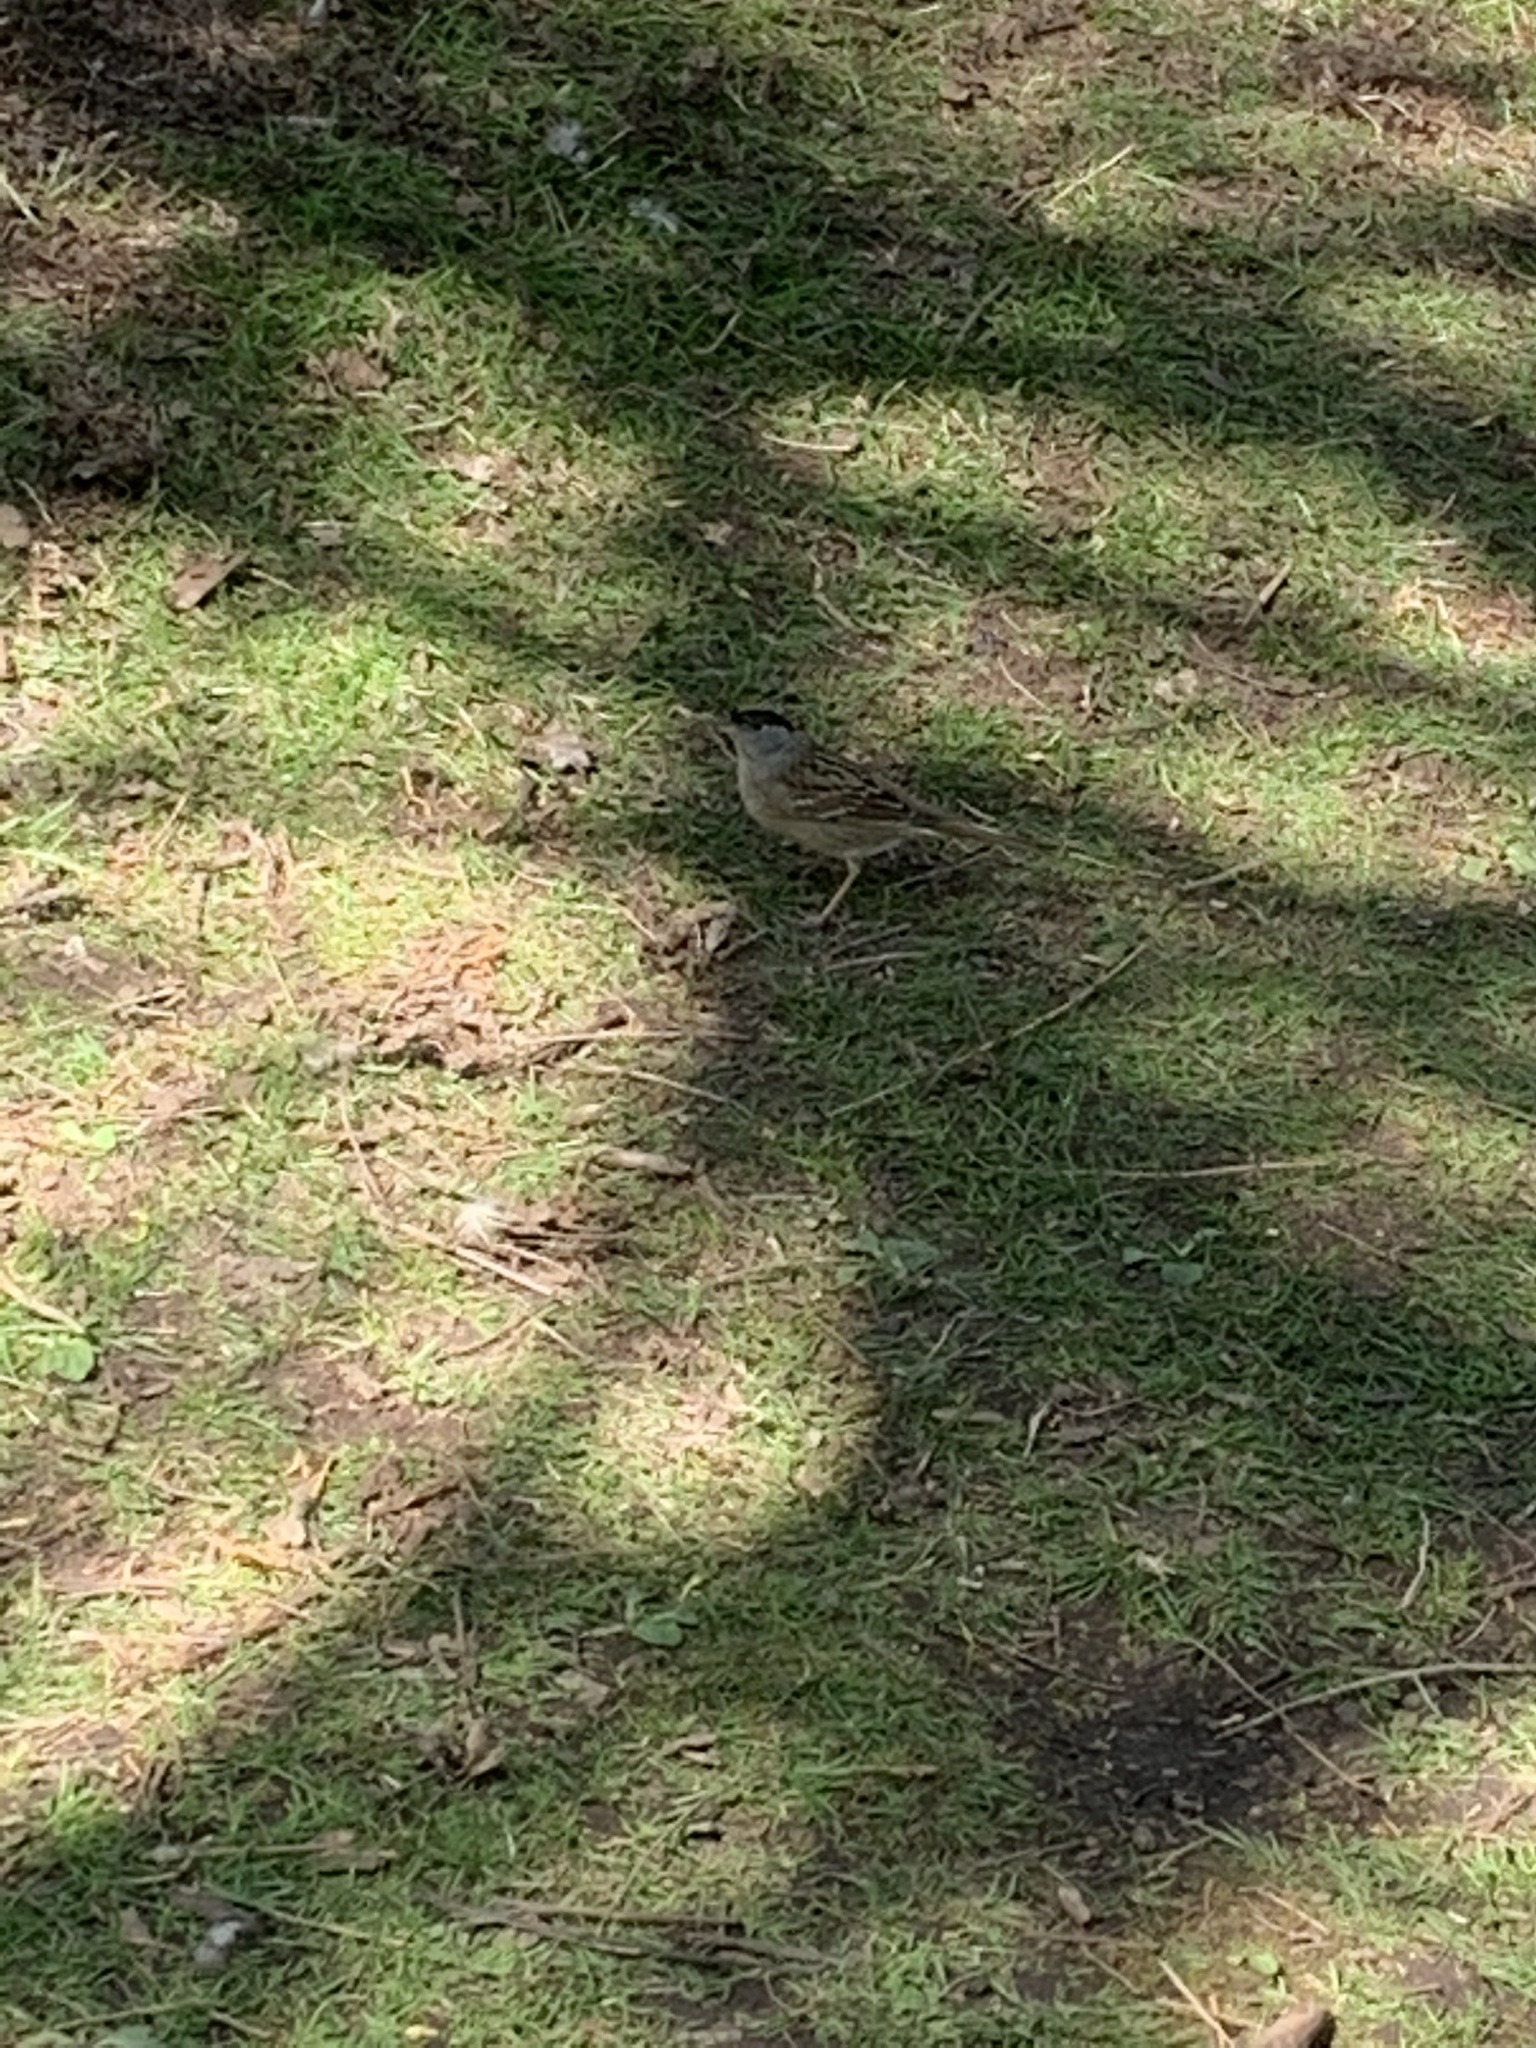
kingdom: Animalia
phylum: Chordata
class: Aves
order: Passeriformes
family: Passerellidae
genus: Zonotrichia
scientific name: Zonotrichia atricapilla
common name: Golden-crowned sparrow
